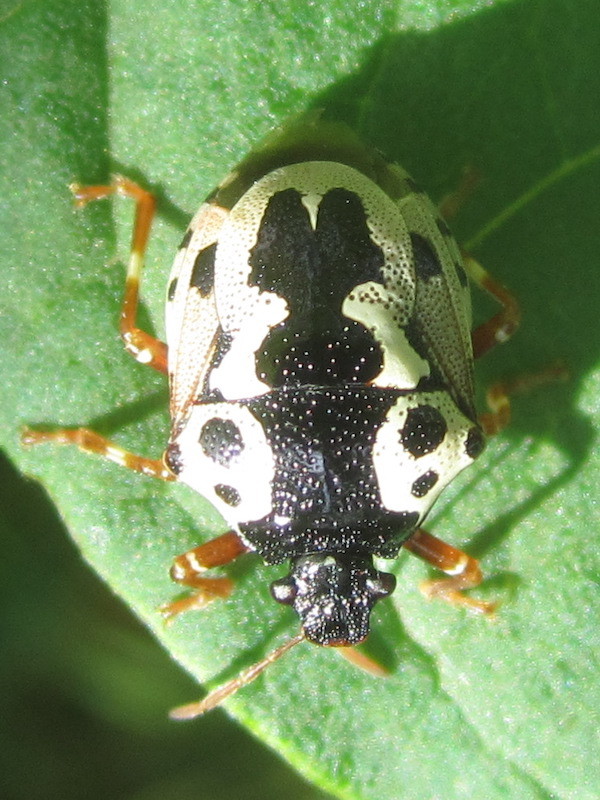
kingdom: Animalia
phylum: Arthropoda
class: Insecta
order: Hemiptera
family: Pentatomidae
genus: Stiretrus
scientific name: Stiretrus anchorago
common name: Anchor stink bug
